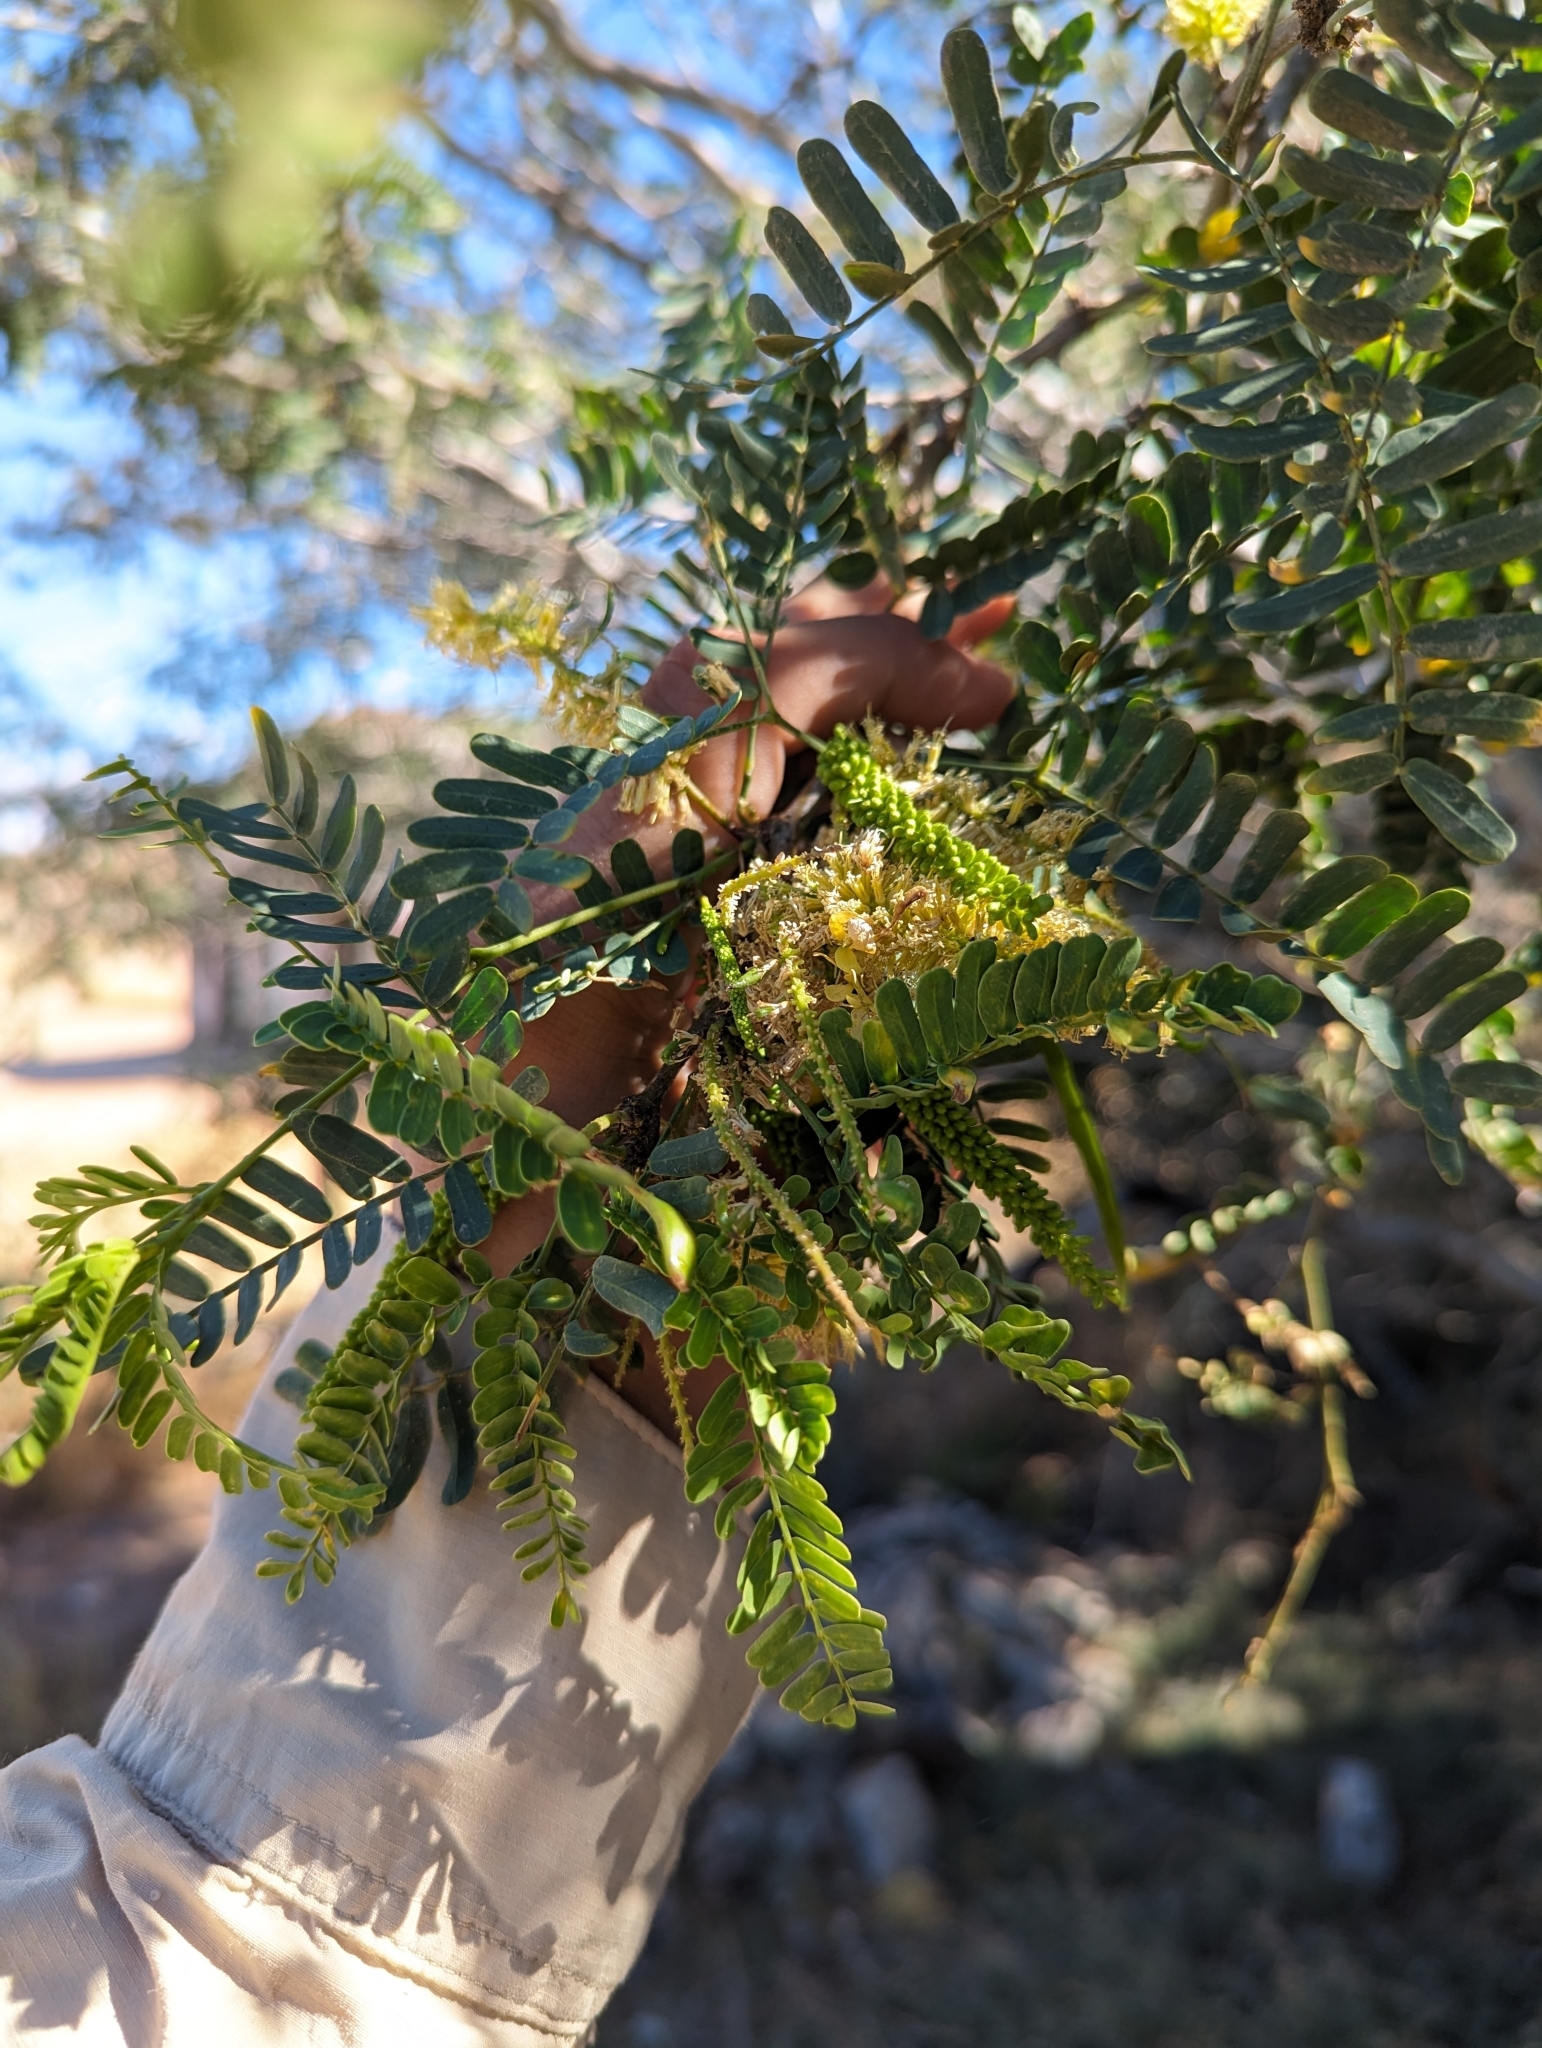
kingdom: Plantae
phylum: Tracheophyta
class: Magnoliopsida
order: Fabales
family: Fabaceae
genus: Prosopis
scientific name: Prosopis pubescens
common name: Screw-bean
